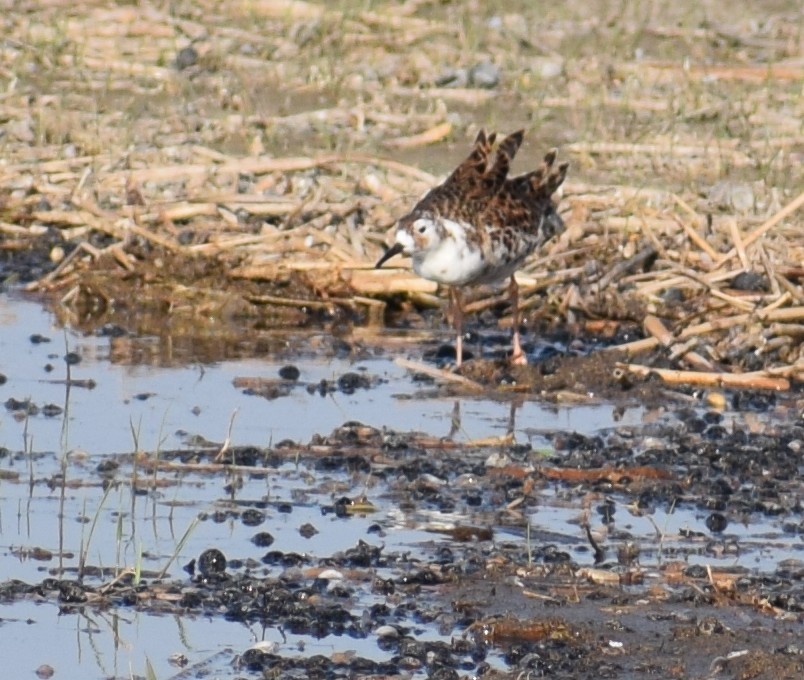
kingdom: Animalia
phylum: Chordata
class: Aves
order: Charadriiformes
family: Scolopacidae
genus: Calidris
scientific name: Calidris pugnax
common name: Ruff
